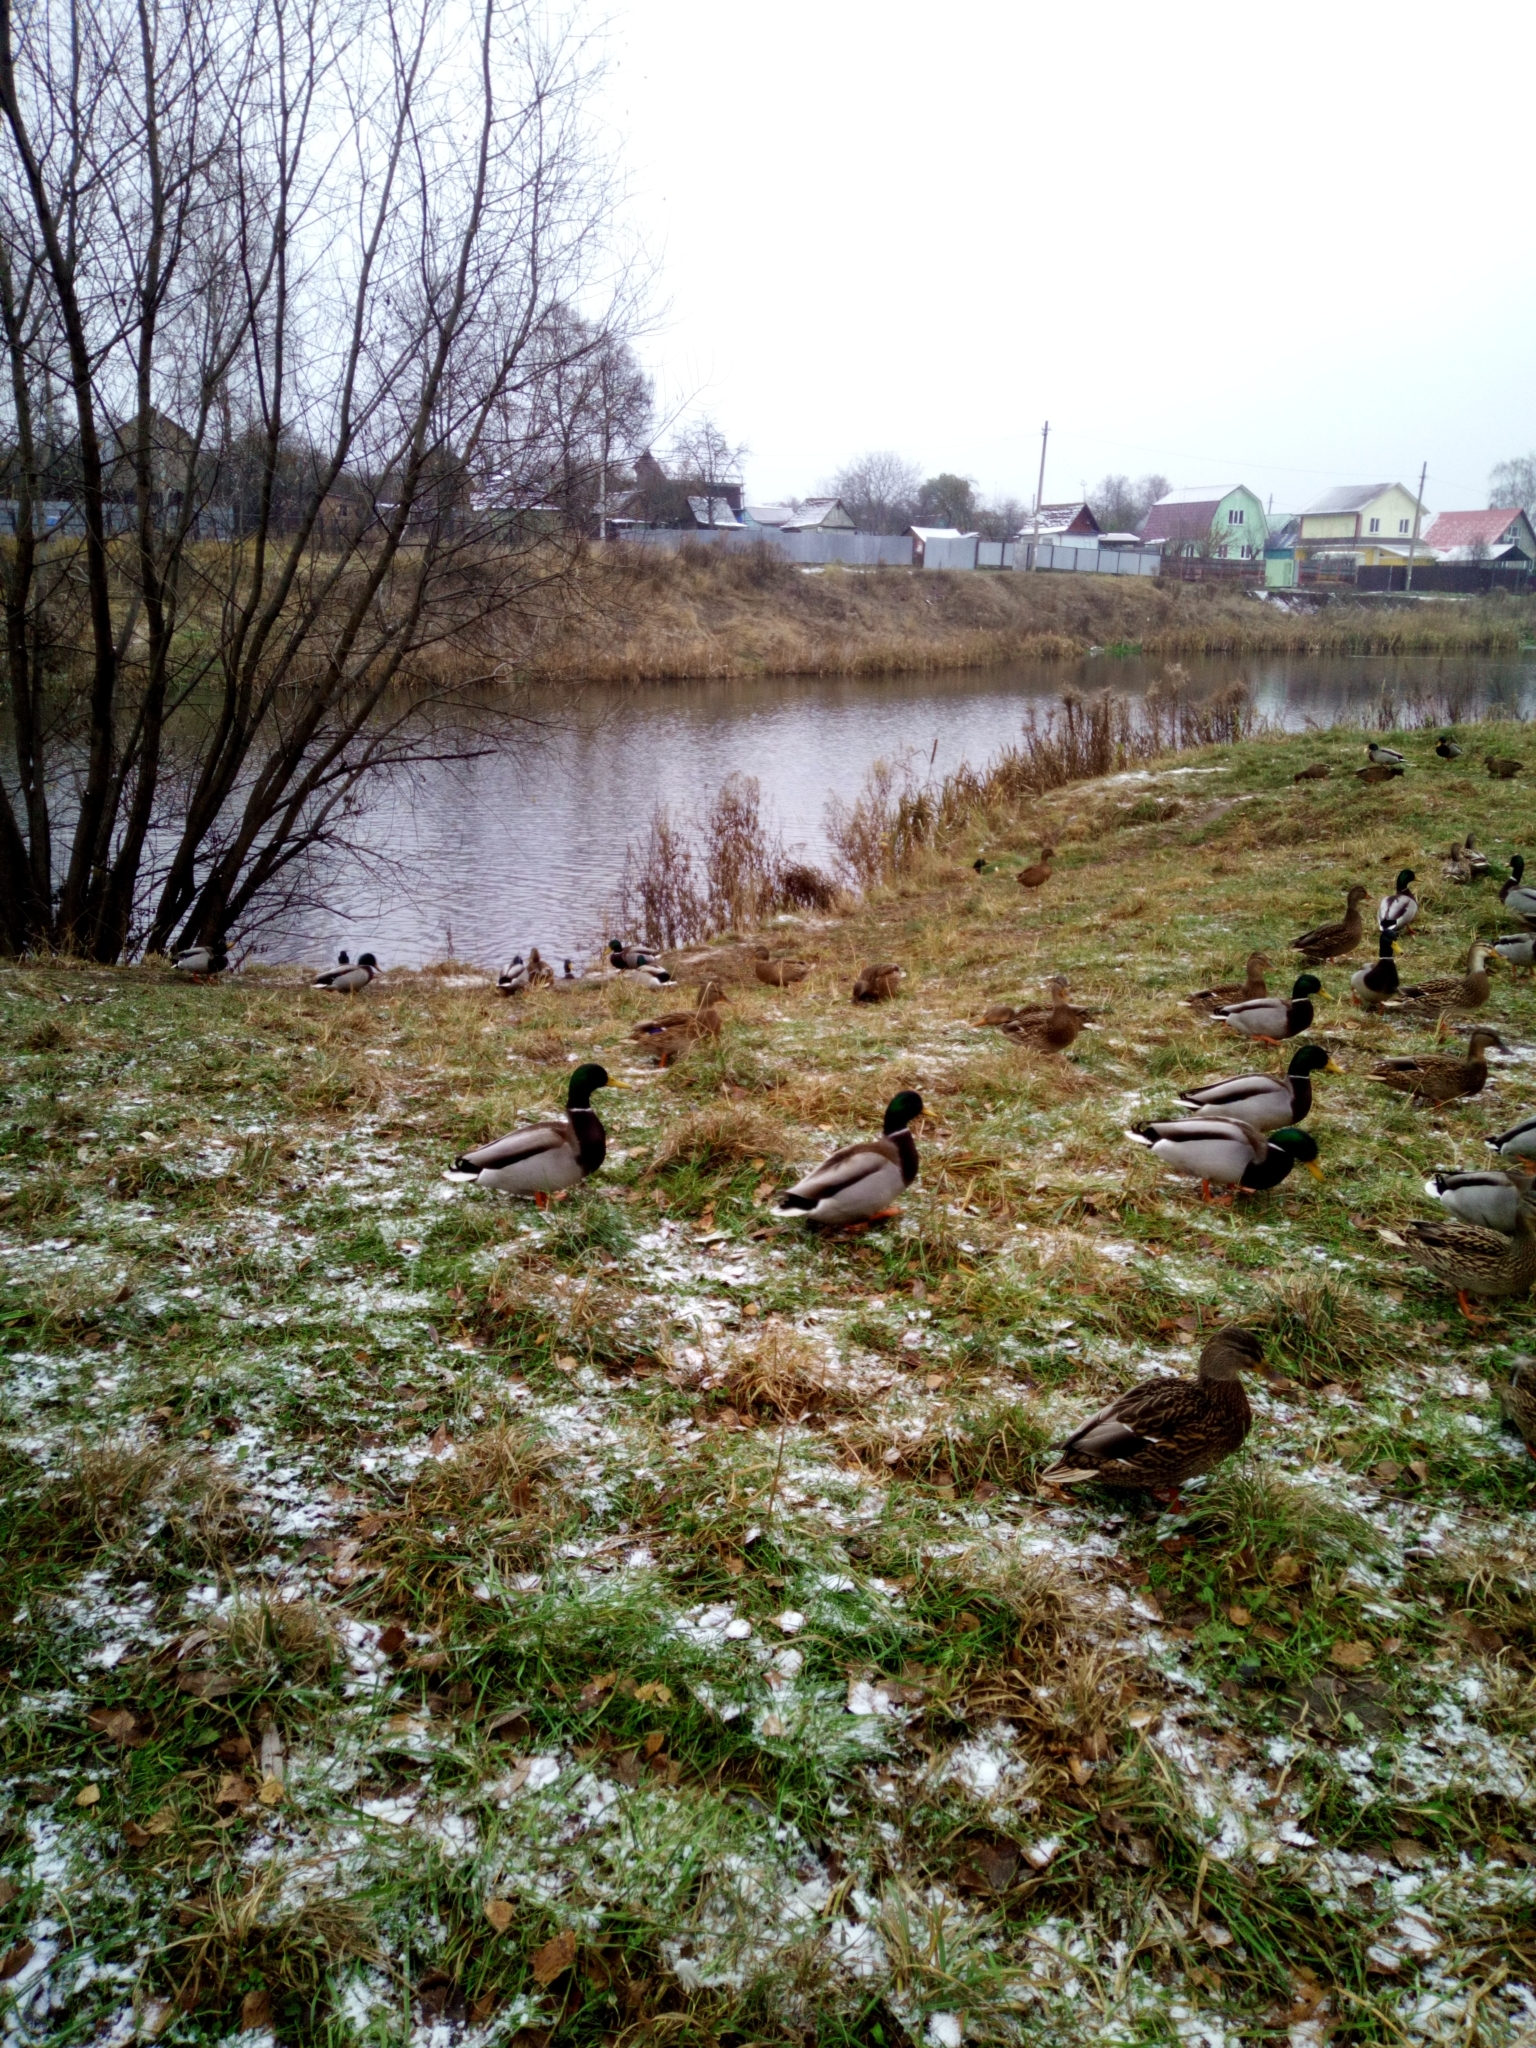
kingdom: Animalia
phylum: Chordata
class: Aves
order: Anseriformes
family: Anatidae
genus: Anas
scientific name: Anas platyrhynchos
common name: Mallard
